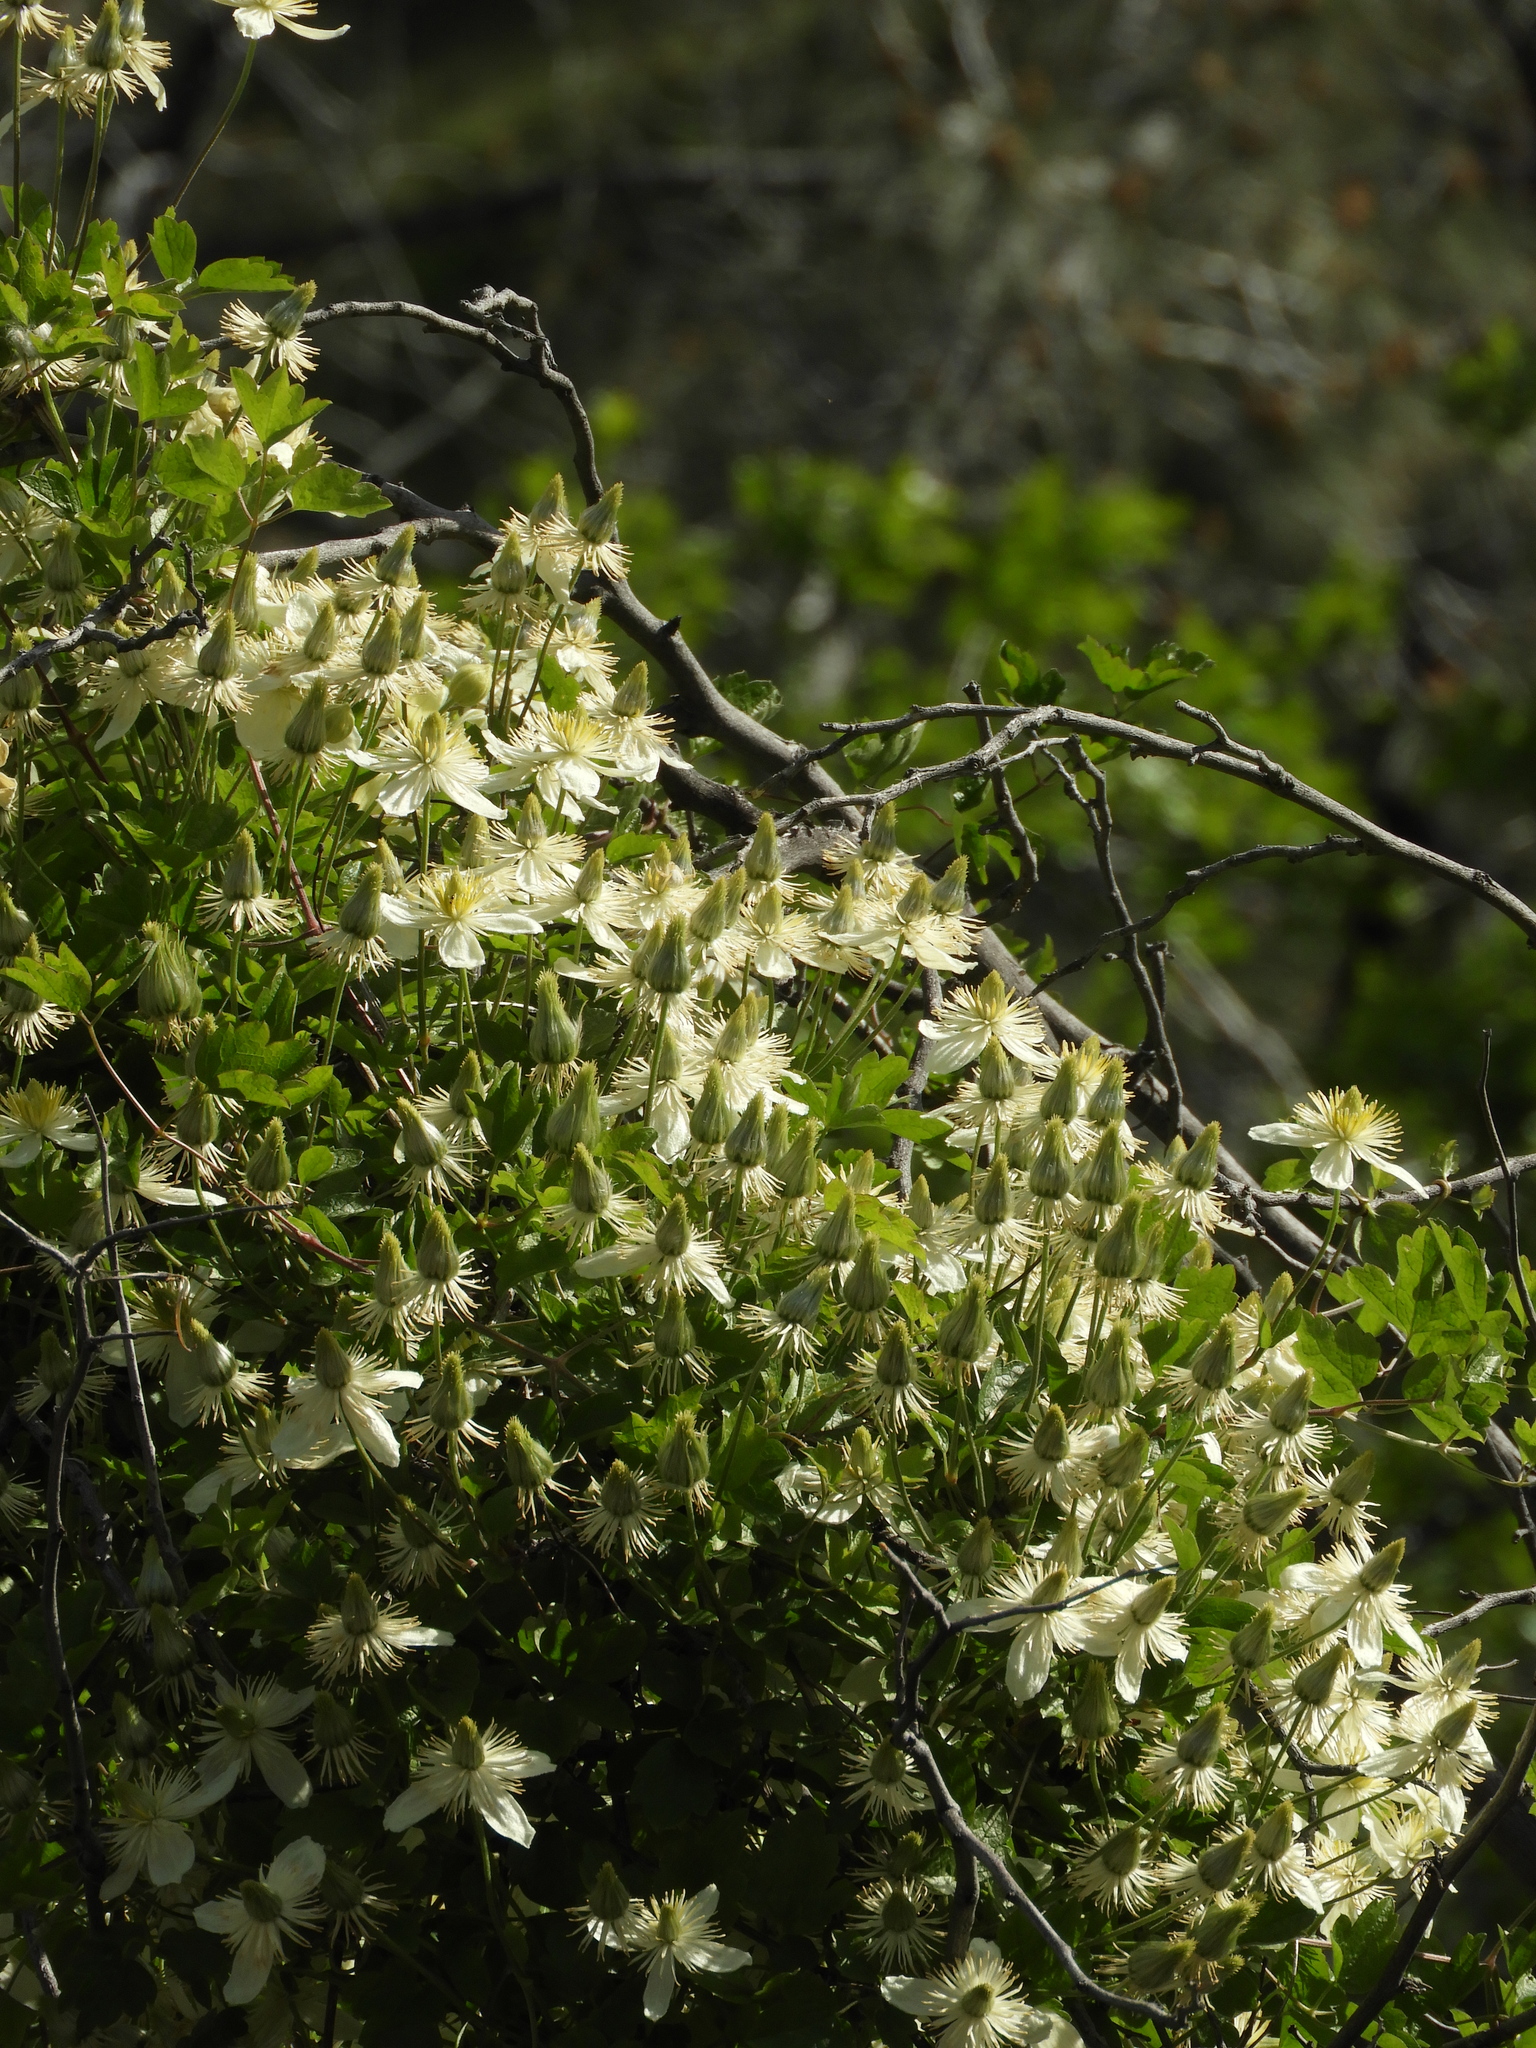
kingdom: Plantae
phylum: Tracheophyta
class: Magnoliopsida
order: Ranunculales
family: Ranunculaceae
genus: Clematis
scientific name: Clematis lasiantha
